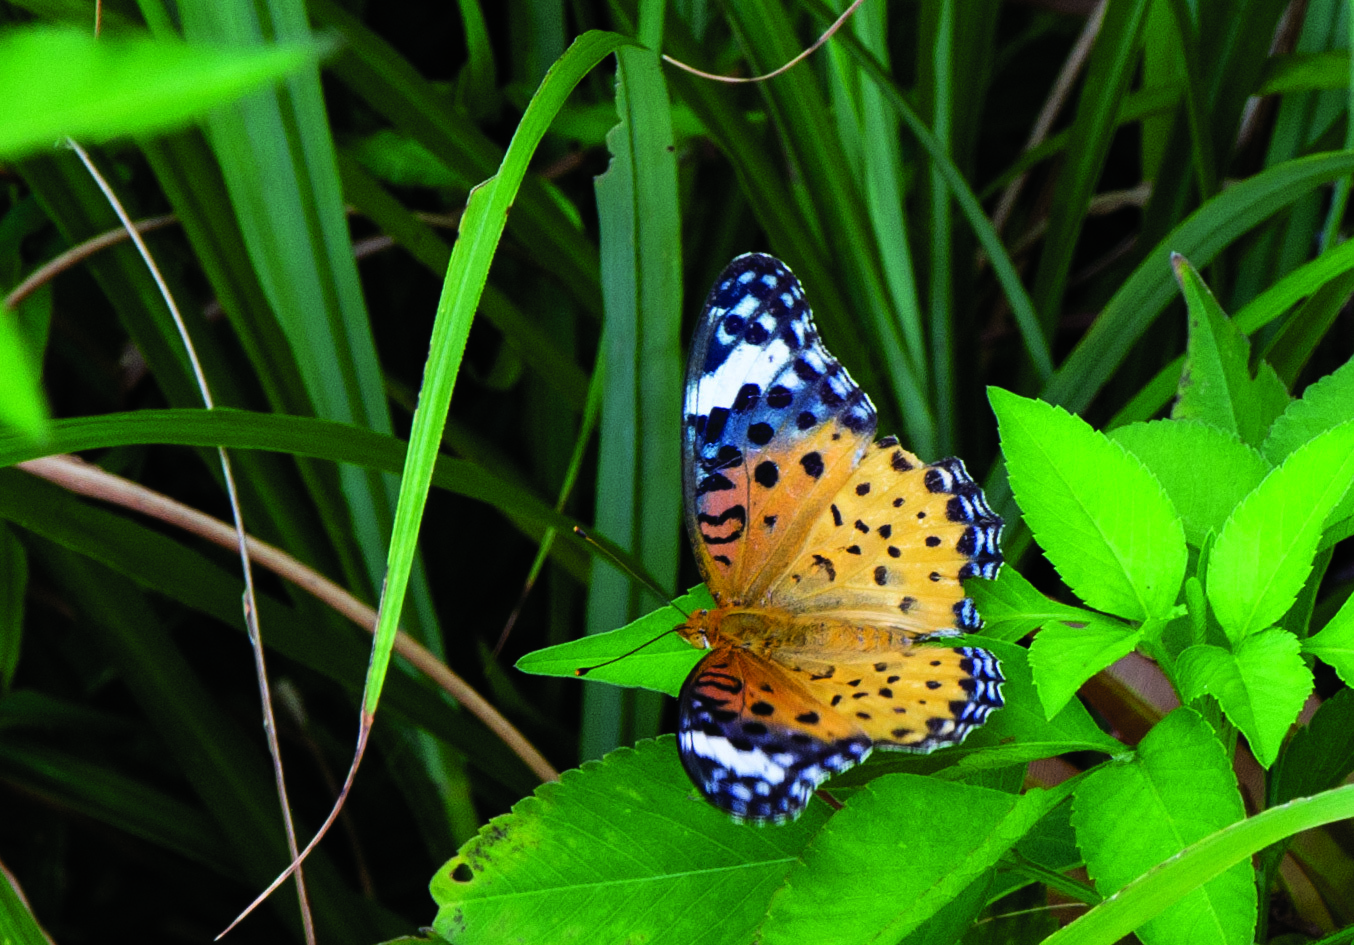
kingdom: Animalia
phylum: Arthropoda
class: Insecta
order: Lepidoptera
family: Nymphalidae
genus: Argynnis
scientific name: Argynnis hyperbius
